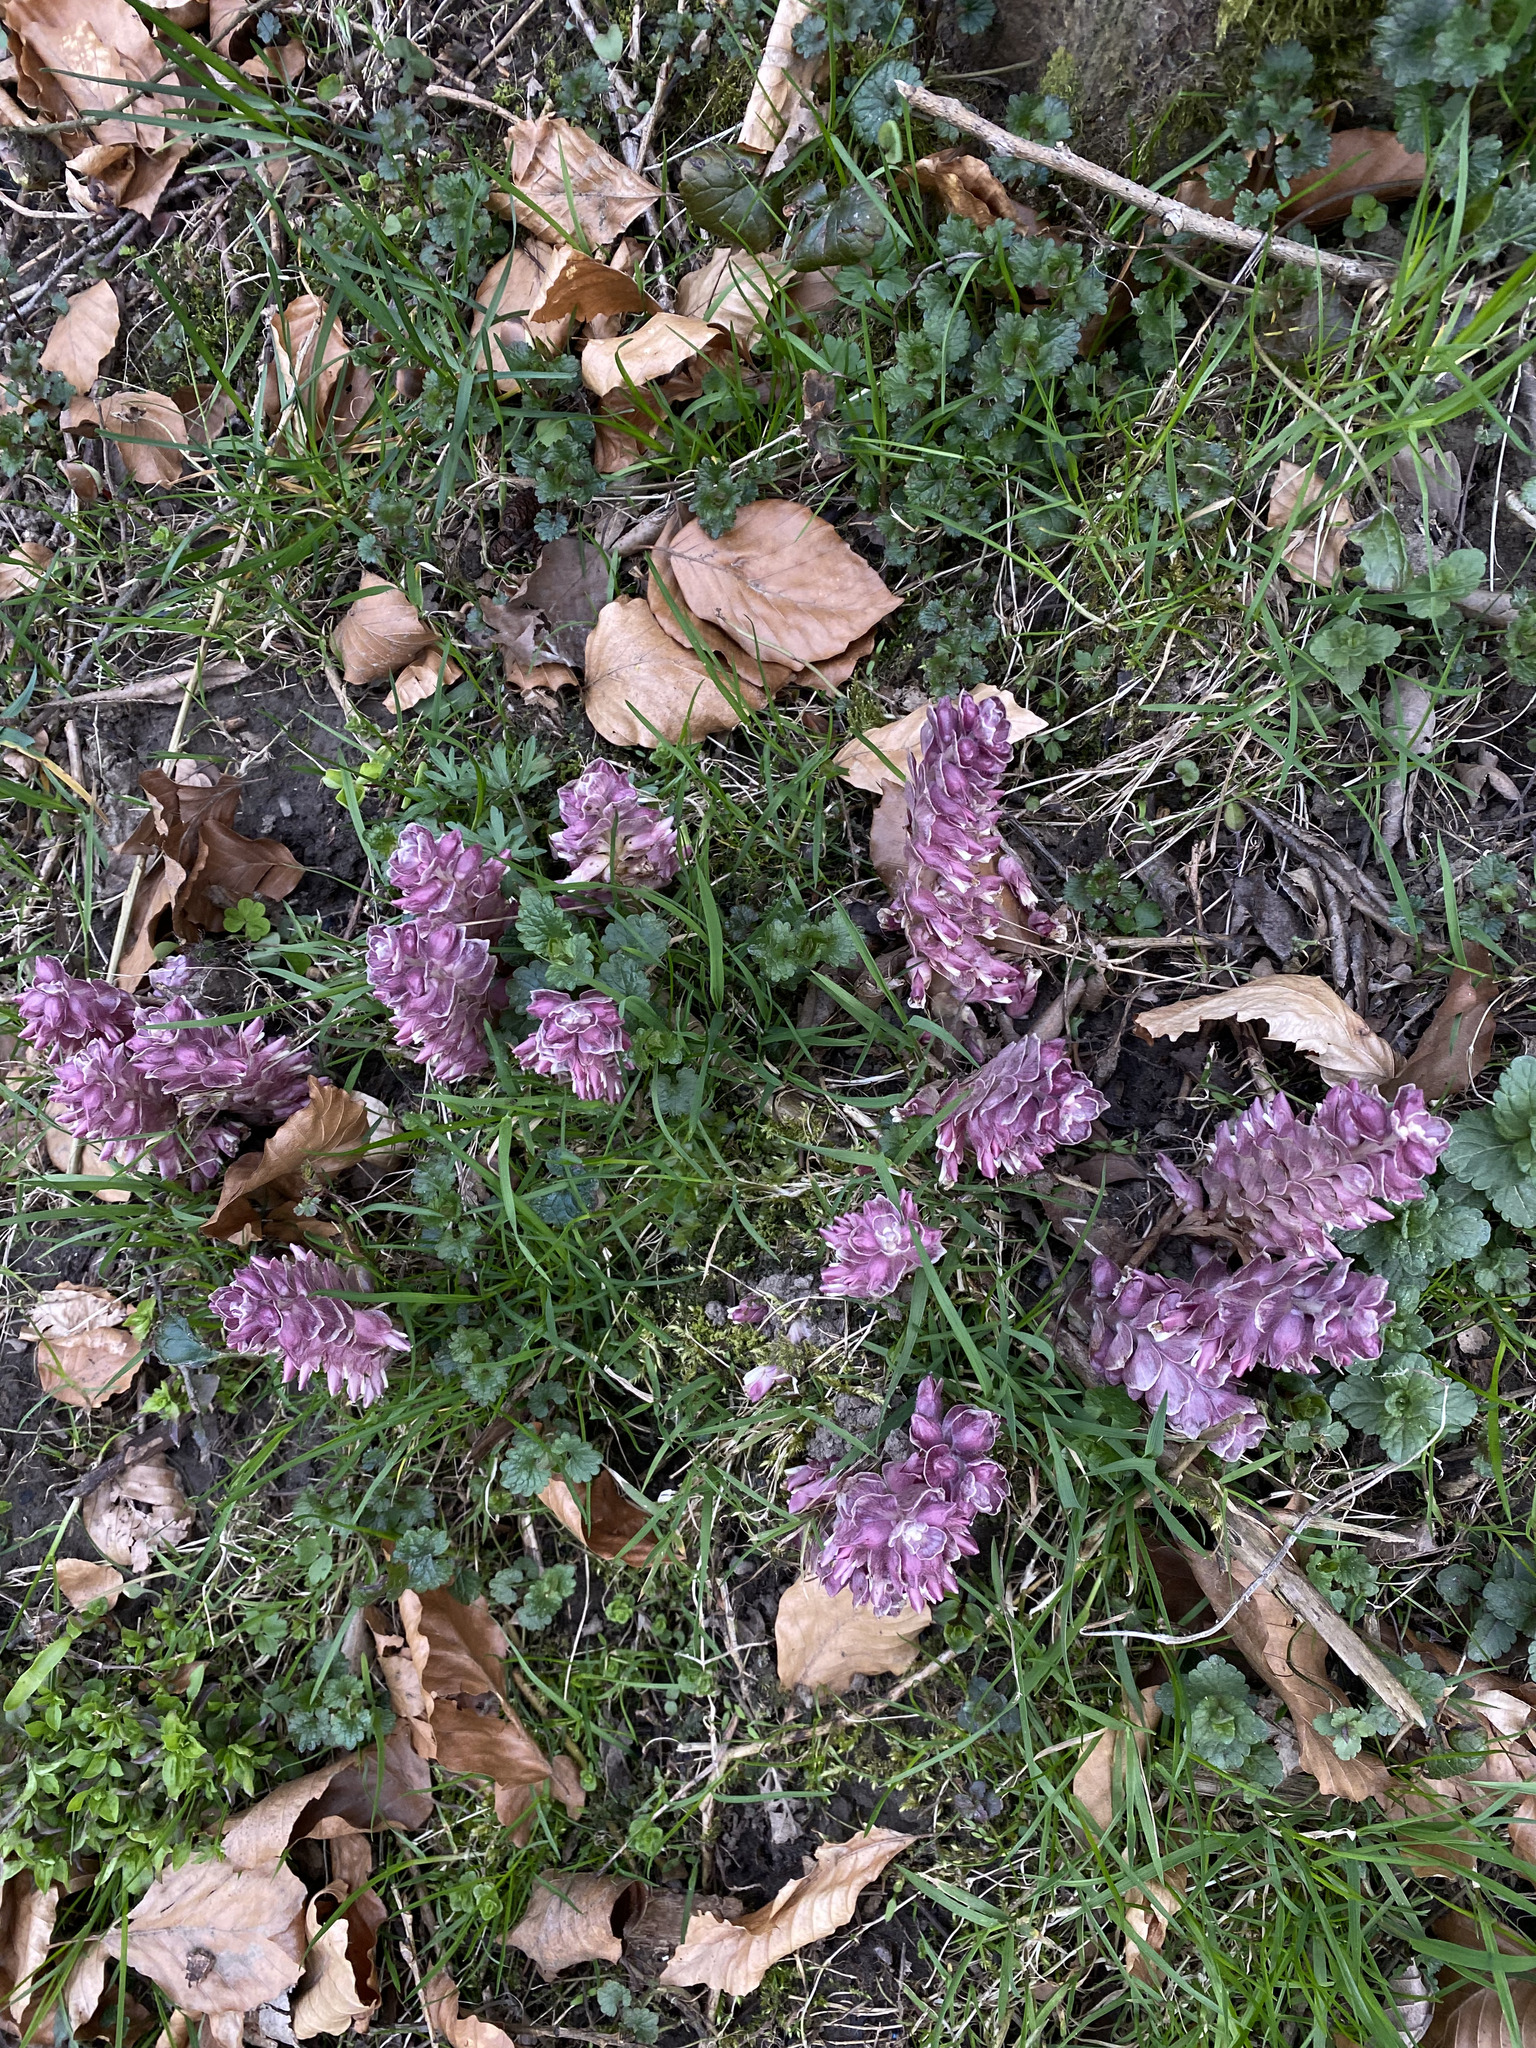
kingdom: Plantae
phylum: Tracheophyta
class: Magnoliopsida
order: Lamiales
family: Orobanchaceae
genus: Lathraea
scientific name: Lathraea squamaria
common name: Toothwort
